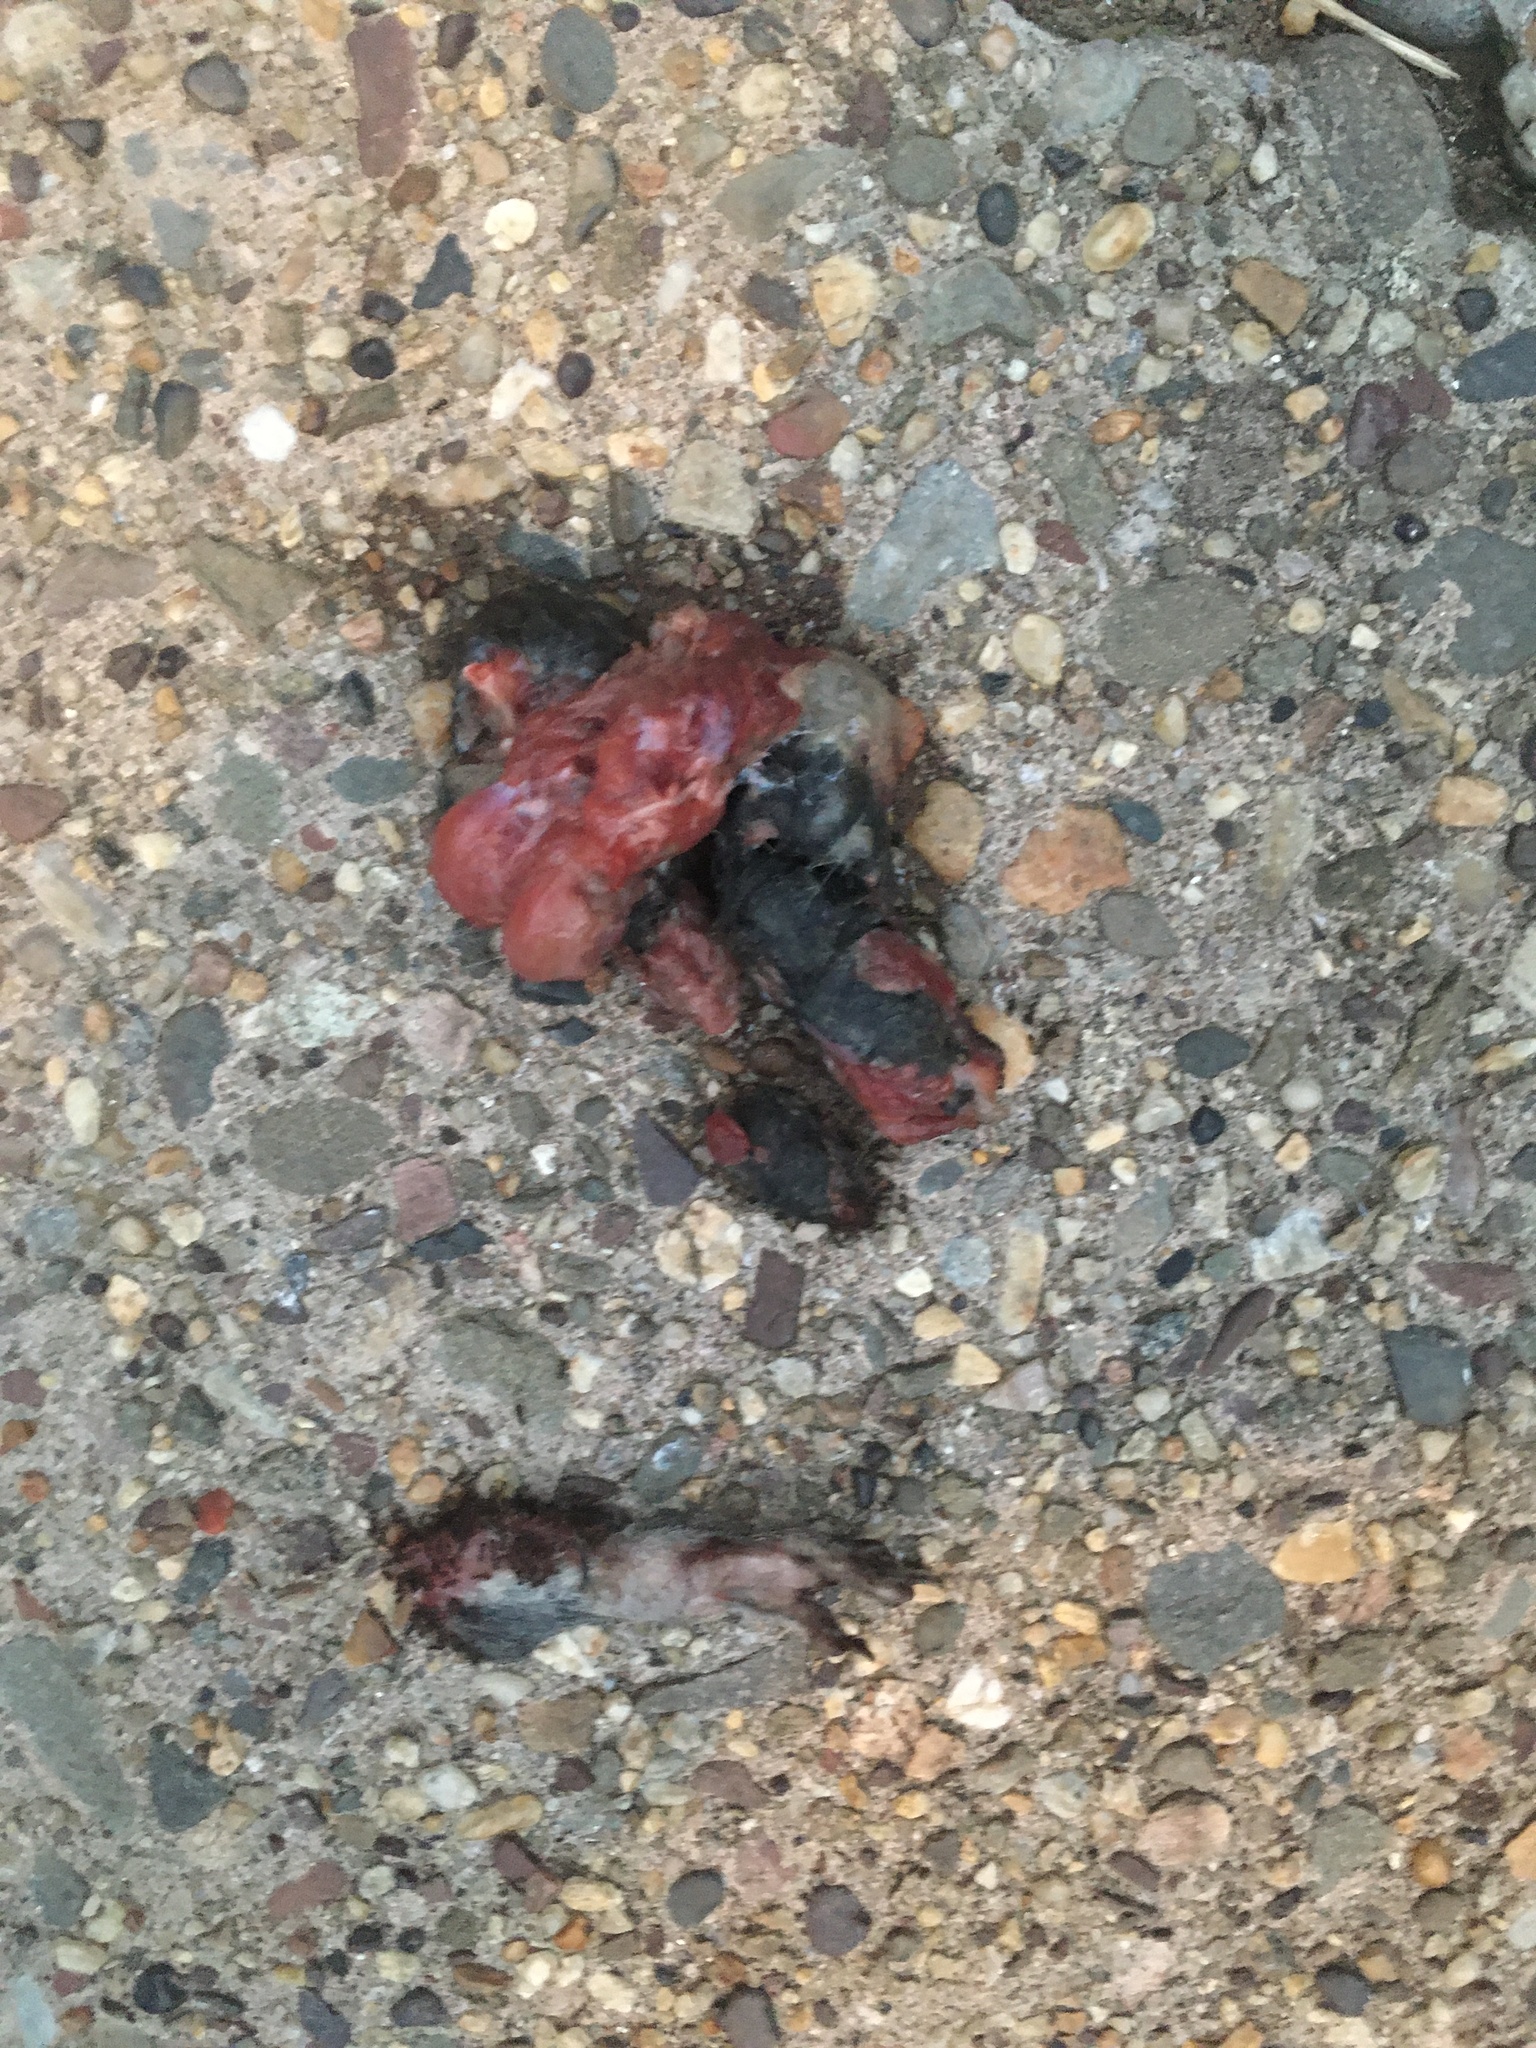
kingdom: Animalia
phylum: Chordata
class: Mammalia
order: Rodentia
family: Sciuridae
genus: Sciurus
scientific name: Sciurus carolinensis
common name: Eastern gray squirrel
